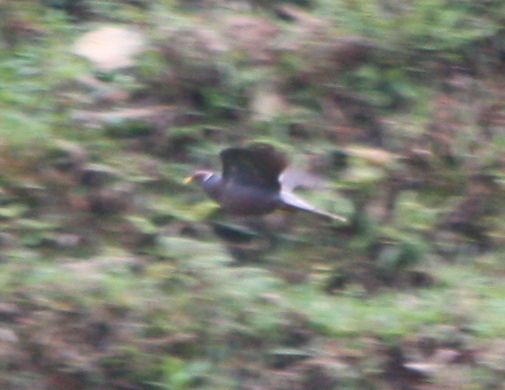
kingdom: Animalia
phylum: Chordata
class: Aves
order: Columbiformes
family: Columbidae
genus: Patagioenas
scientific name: Patagioenas fasciata
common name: Band-tailed pigeon
